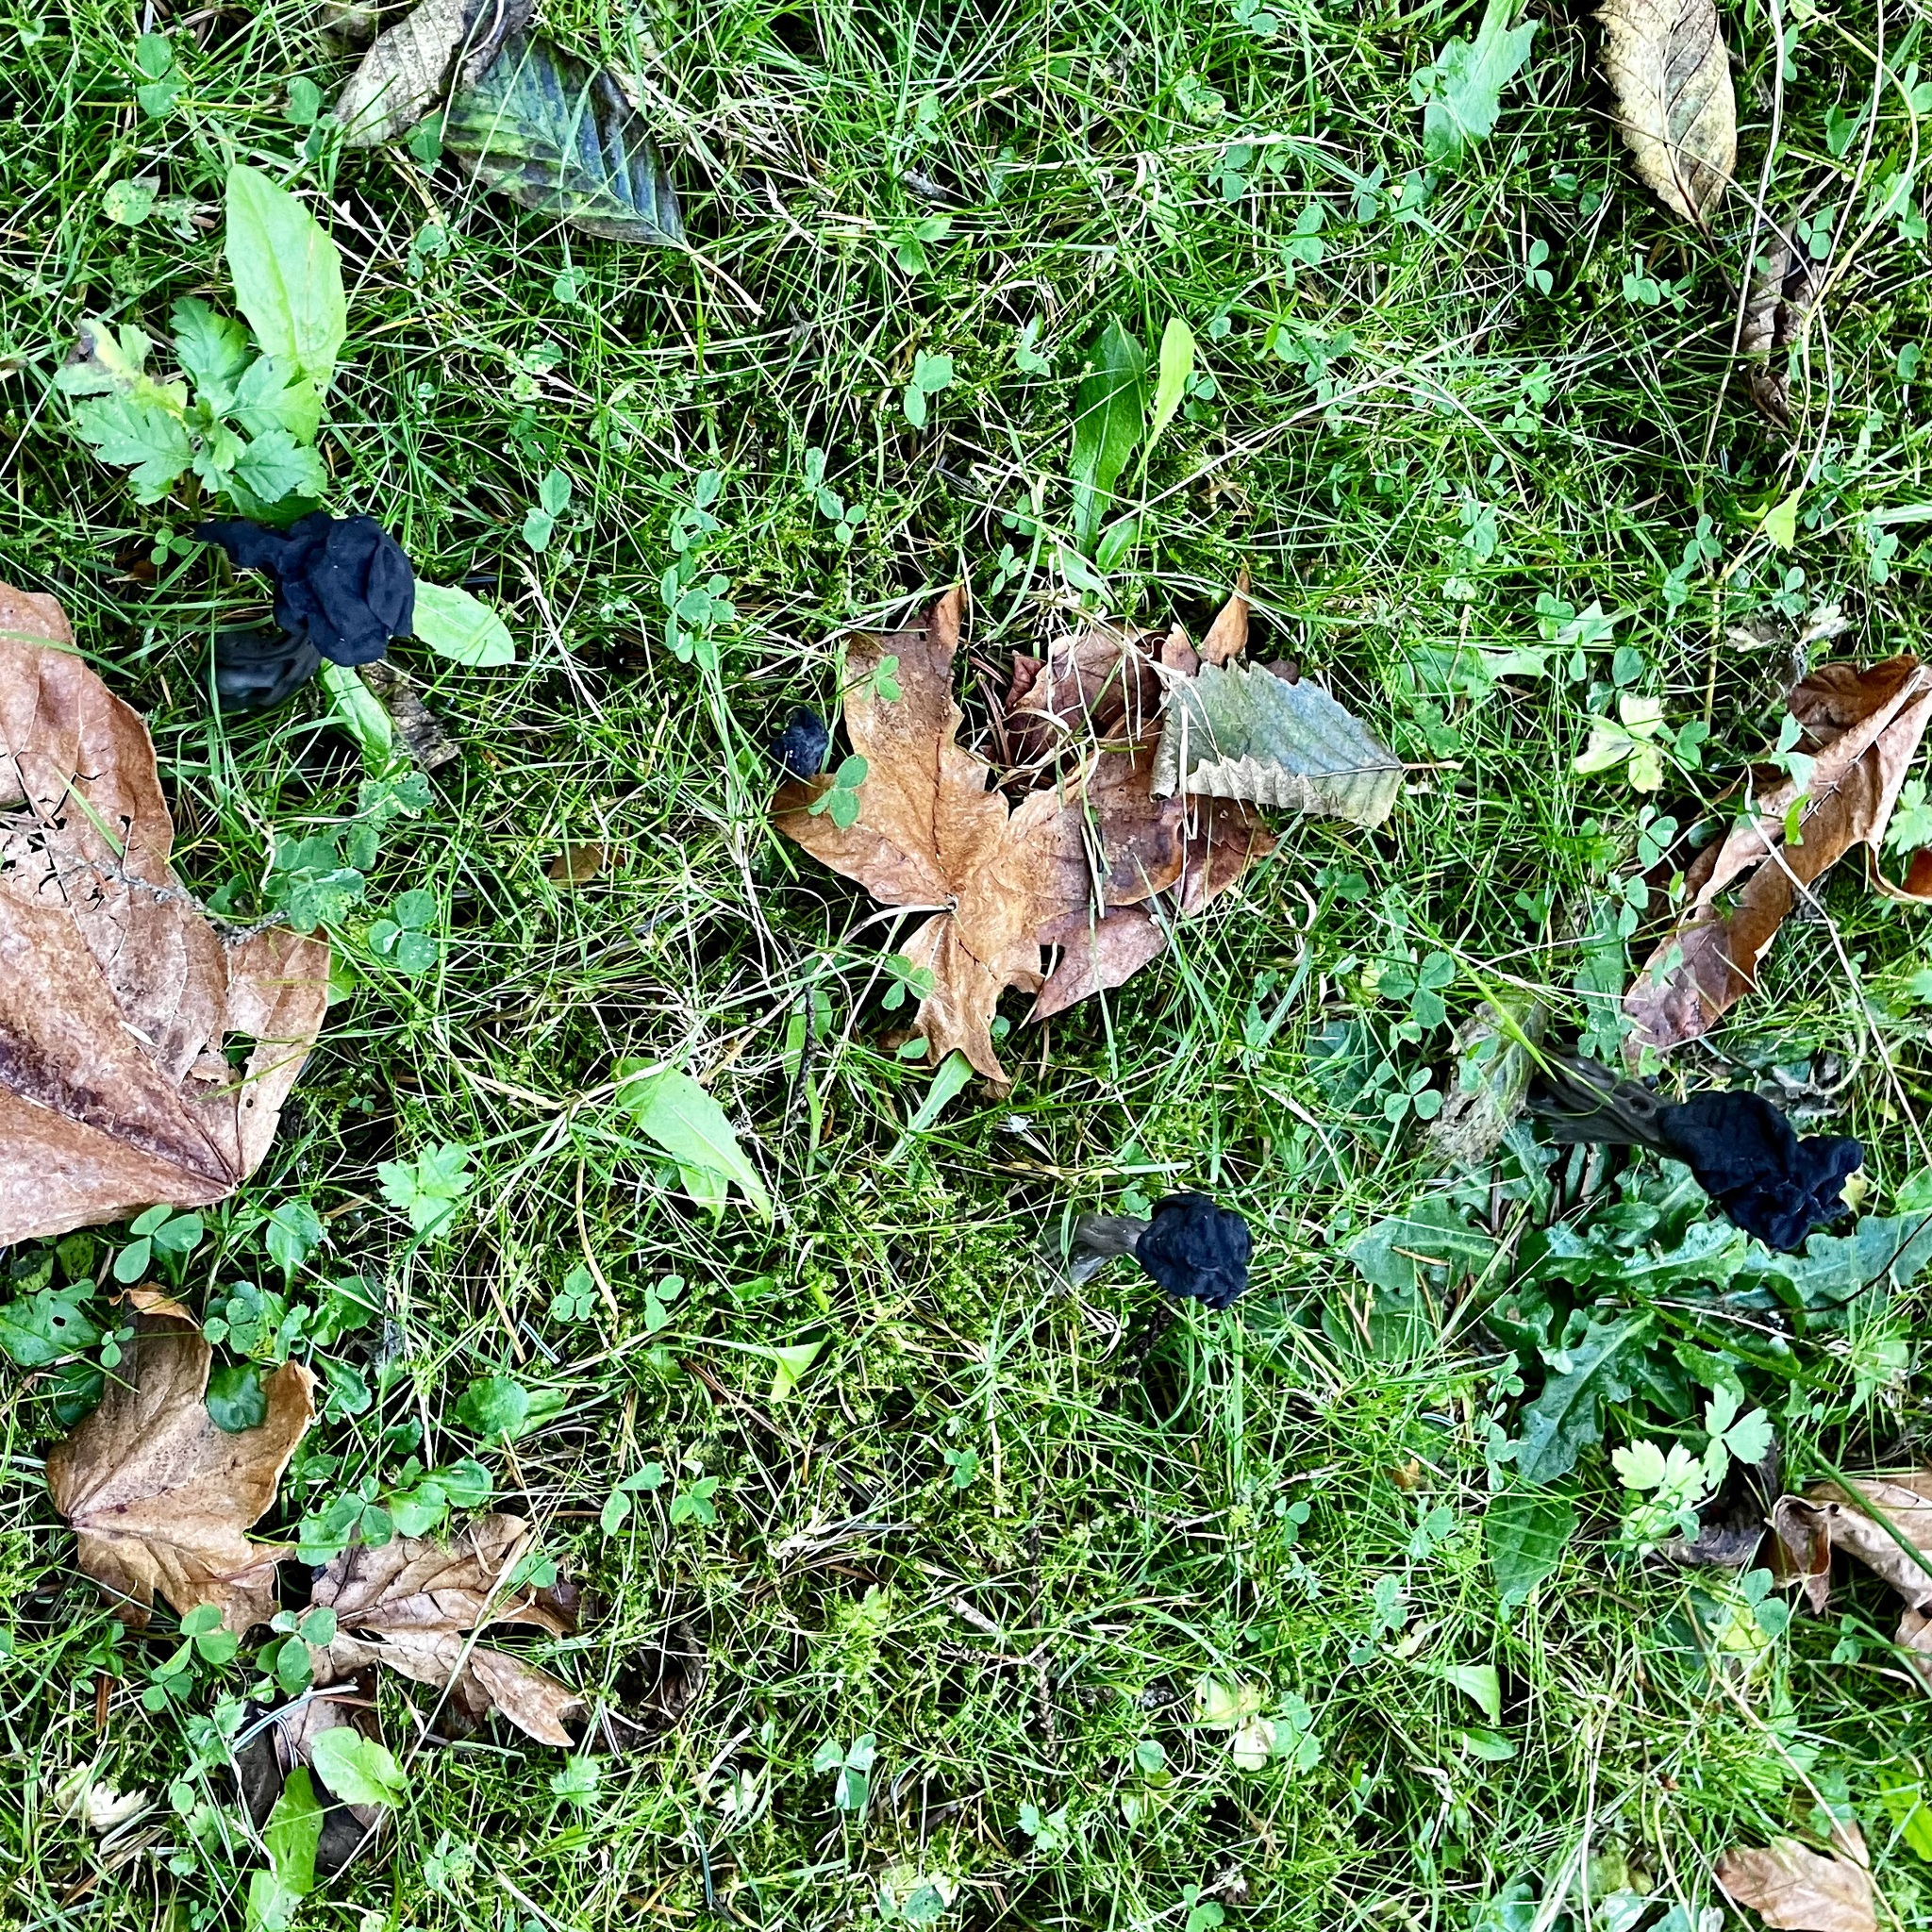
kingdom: Fungi
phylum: Ascomycota
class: Pezizomycetes
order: Pezizales
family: Helvellaceae
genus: Helvella
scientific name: Helvella vespertina
